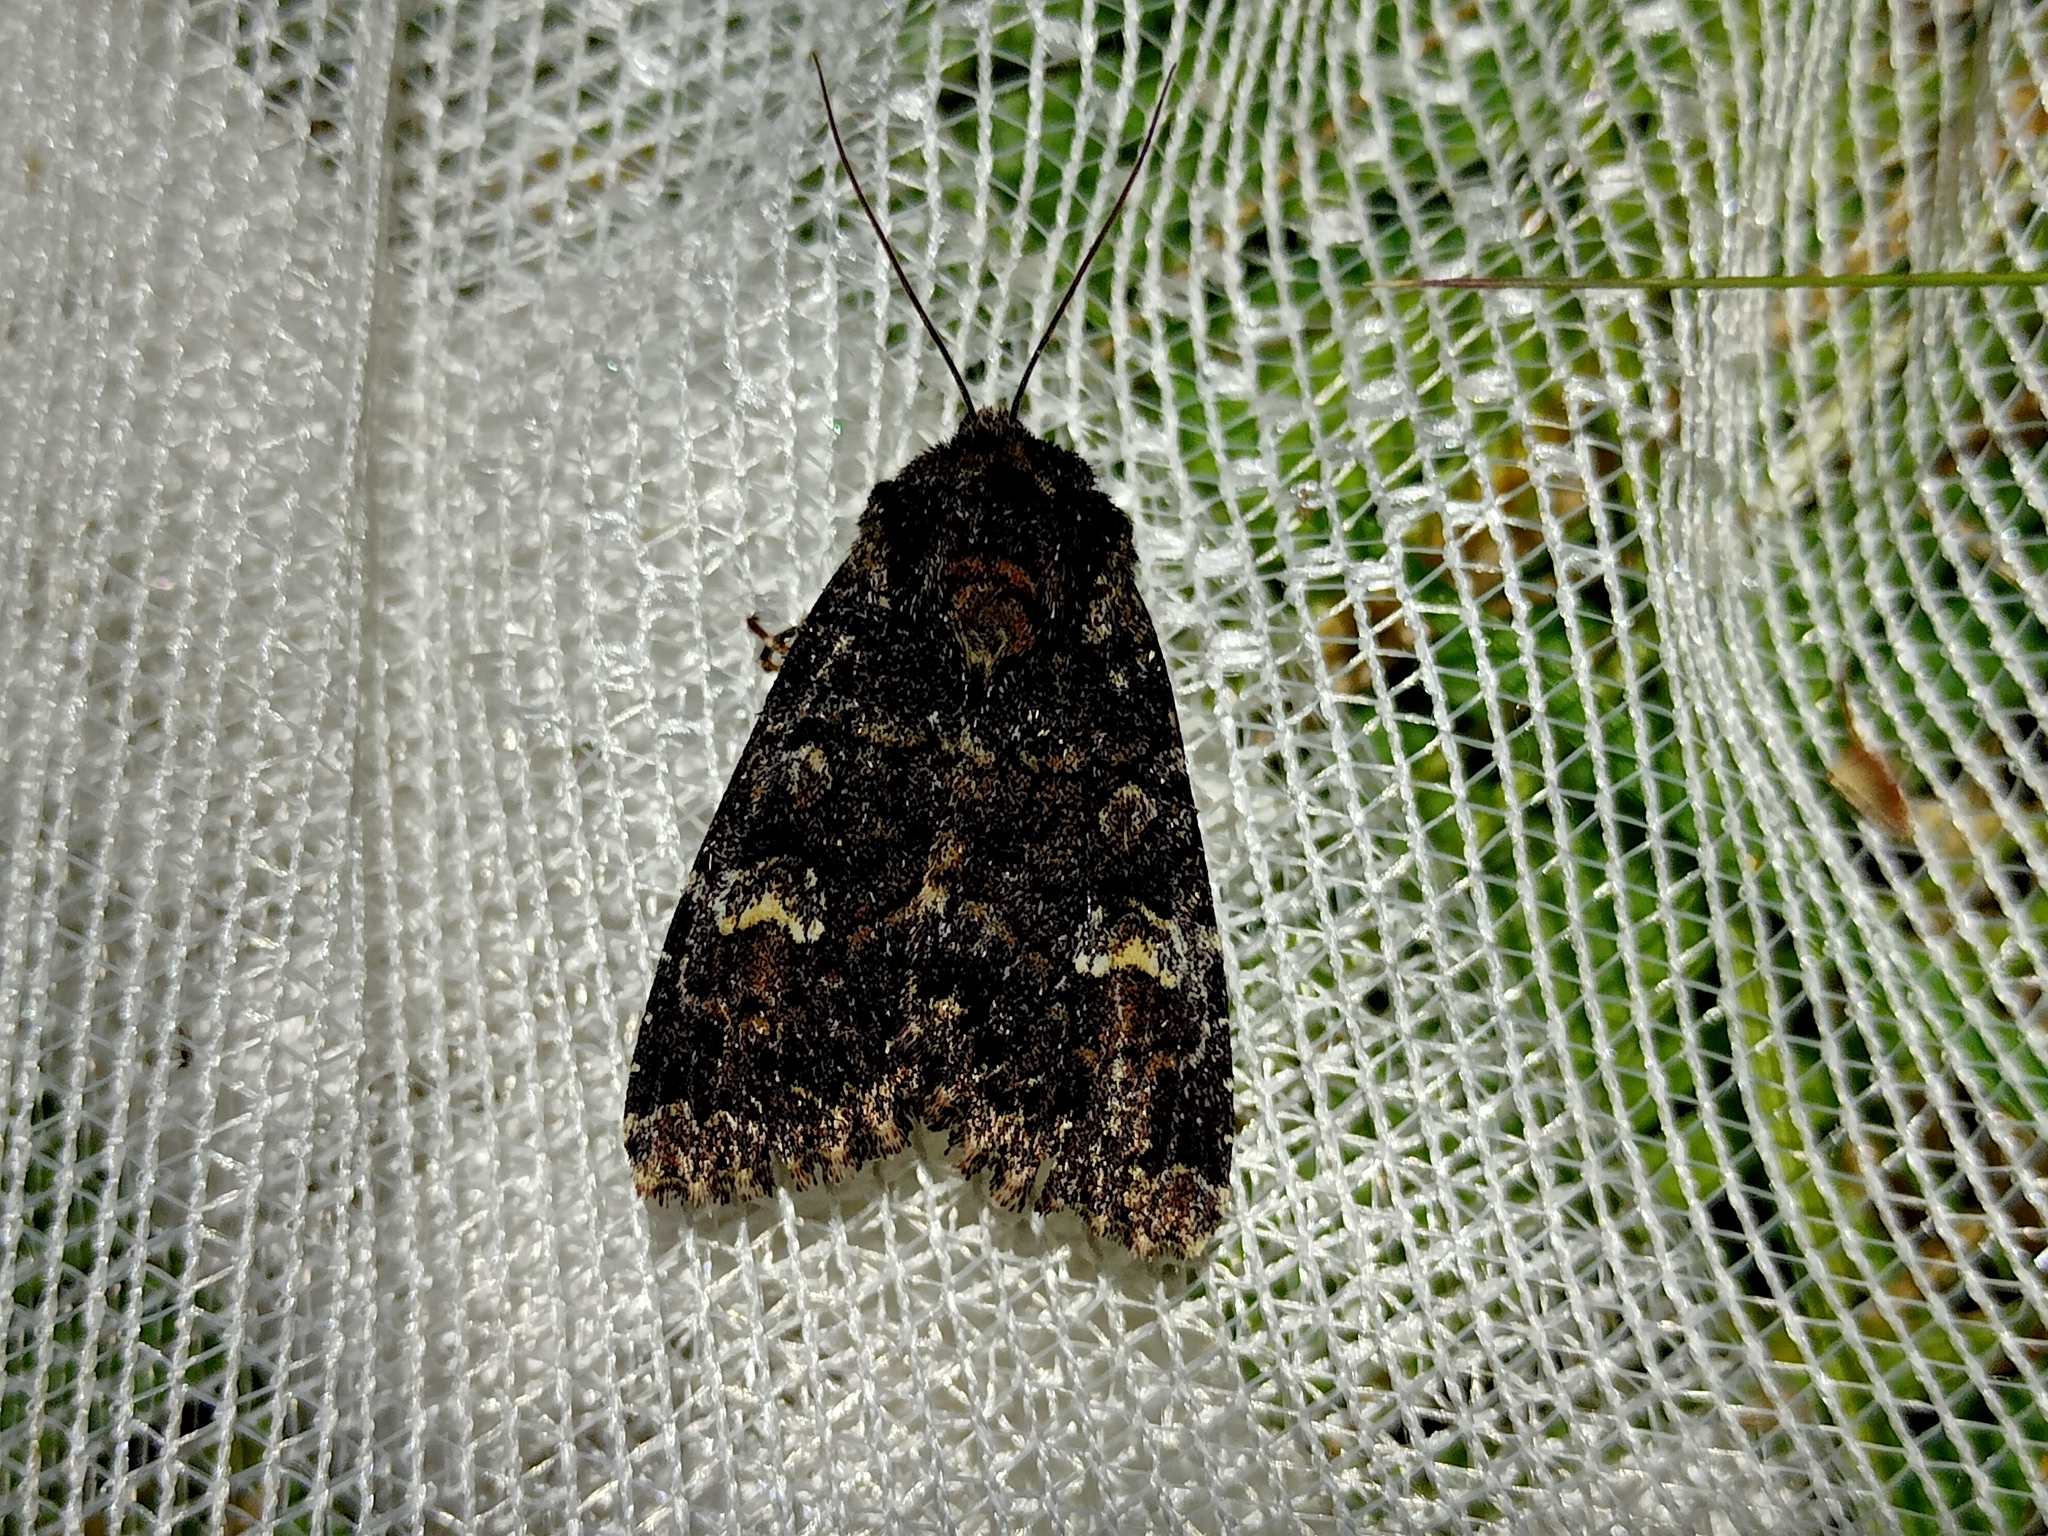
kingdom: Animalia
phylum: Arthropoda
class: Insecta
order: Lepidoptera
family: Noctuidae
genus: Apamea
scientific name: Apamea rubrirena
